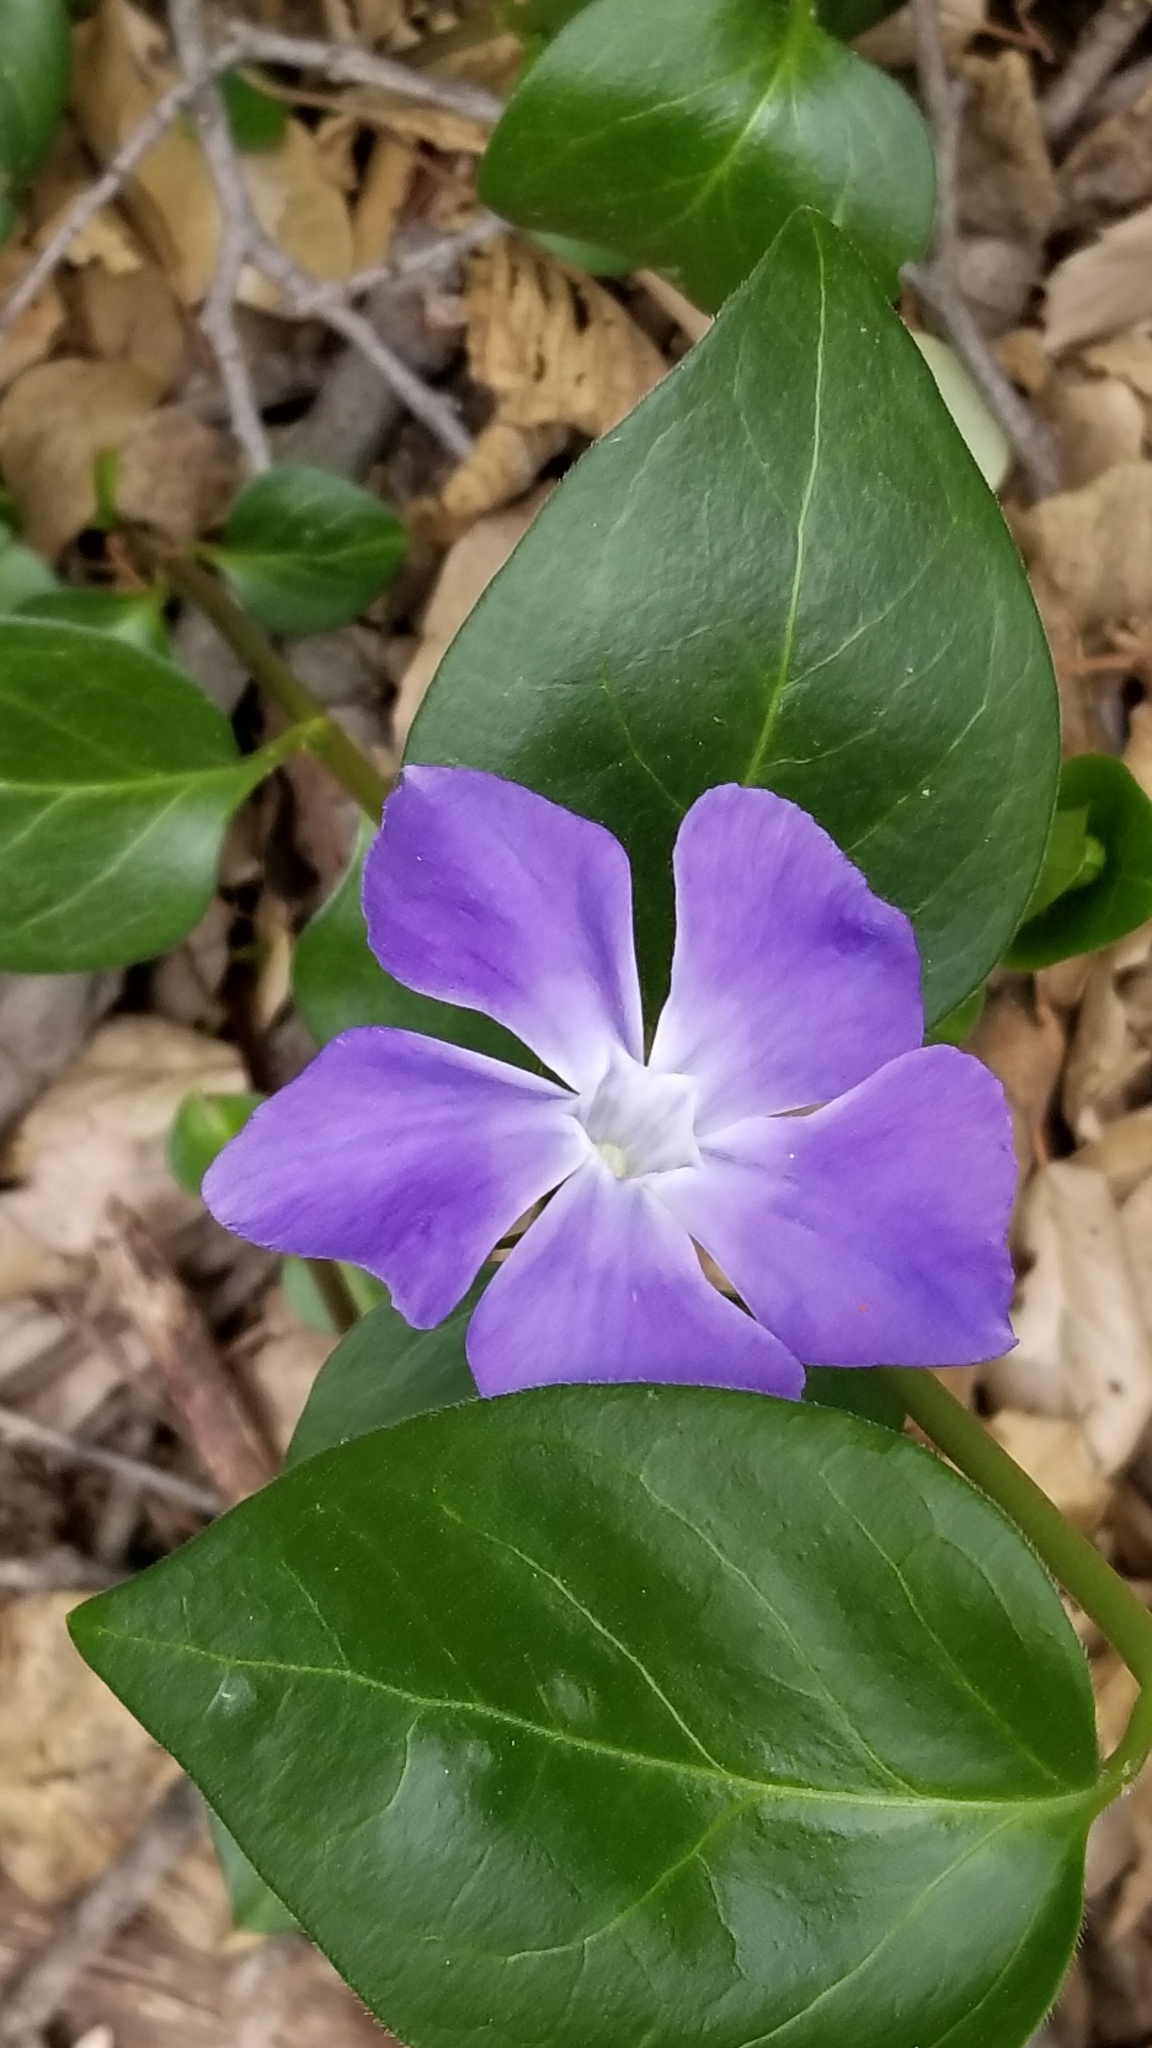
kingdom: Plantae
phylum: Tracheophyta
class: Magnoliopsida
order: Gentianales
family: Apocynaceae
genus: Vinca
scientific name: Vinca major
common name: Greater periwinkle
